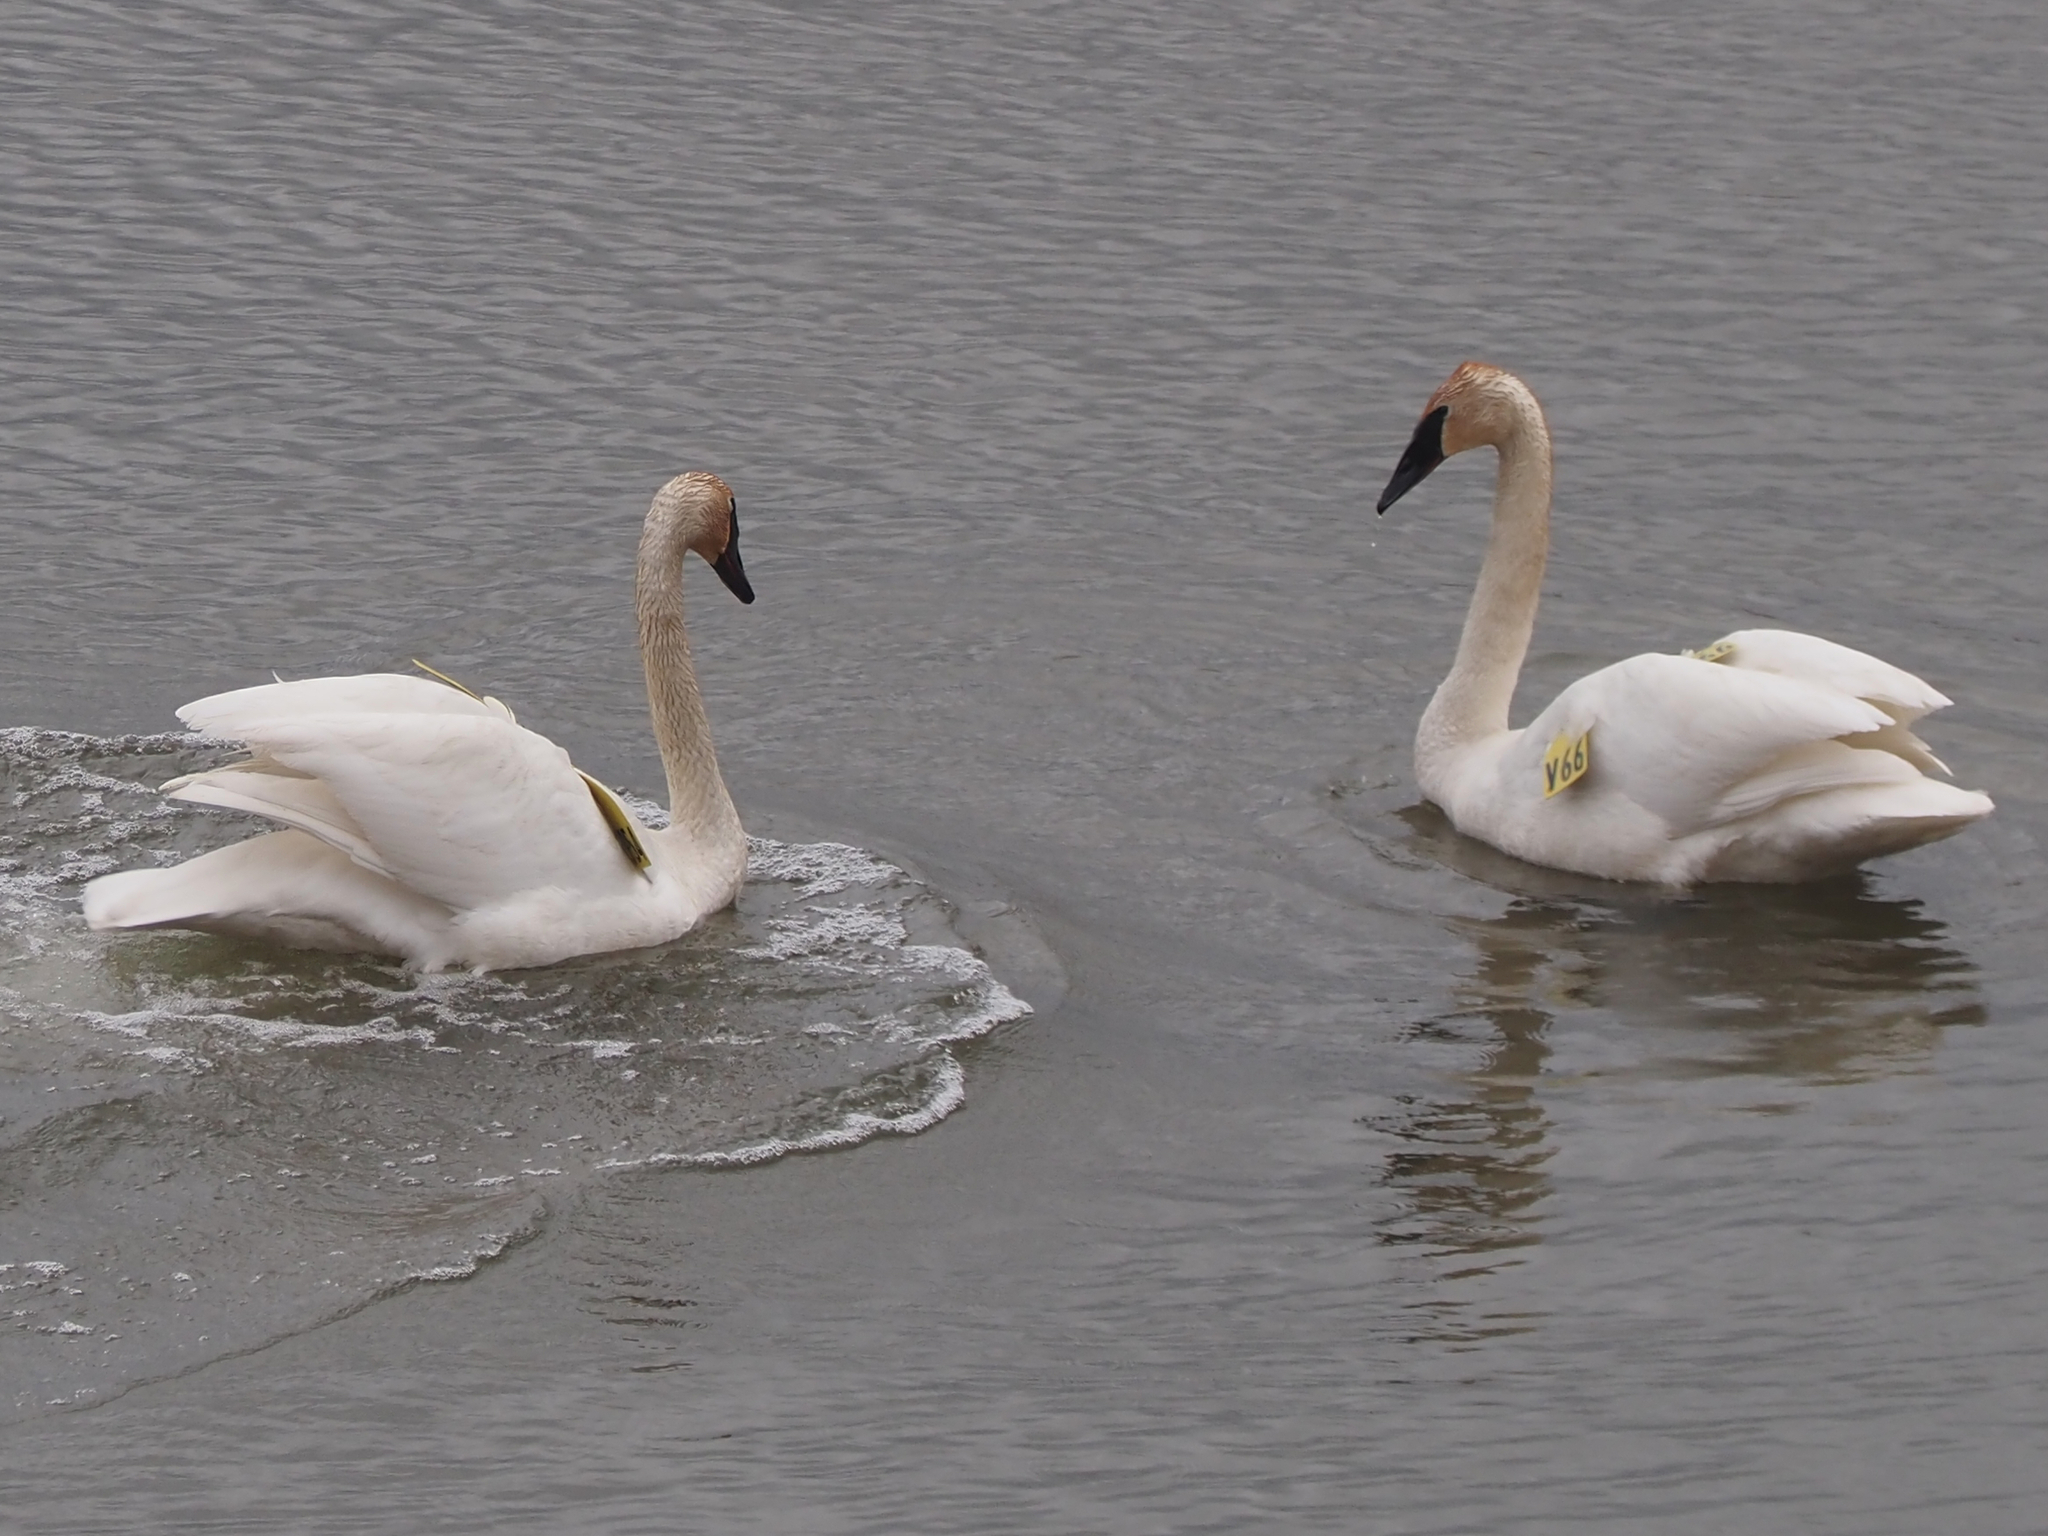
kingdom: Animalia
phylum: Chordata
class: Aves
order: Anseriformes
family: Anatidae
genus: Cygnus
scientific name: Cygnus buccinator
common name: Trumpeter swan
